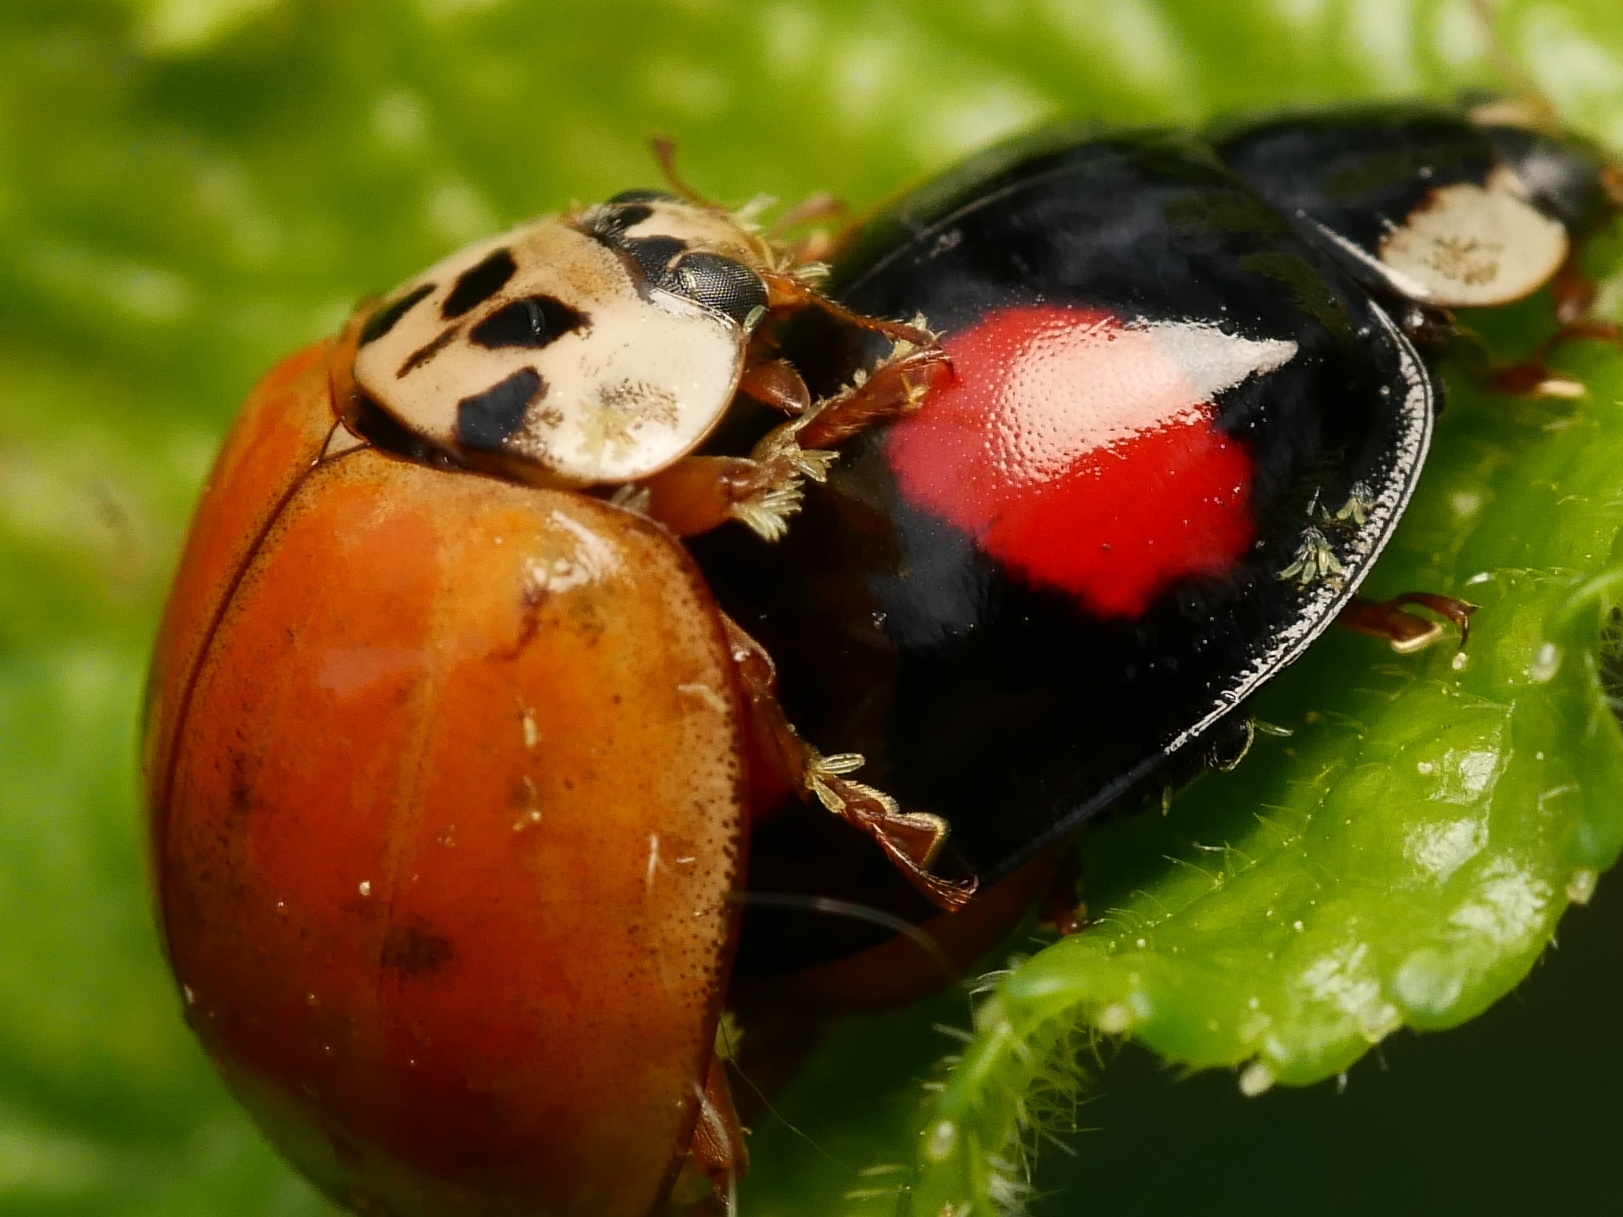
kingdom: Animalia
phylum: Arthropoda
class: Insecta
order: Coleoptera
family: Coccinellidae
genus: Harmonia
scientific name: Harmonia axyridis
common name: Harlequin ladybird
